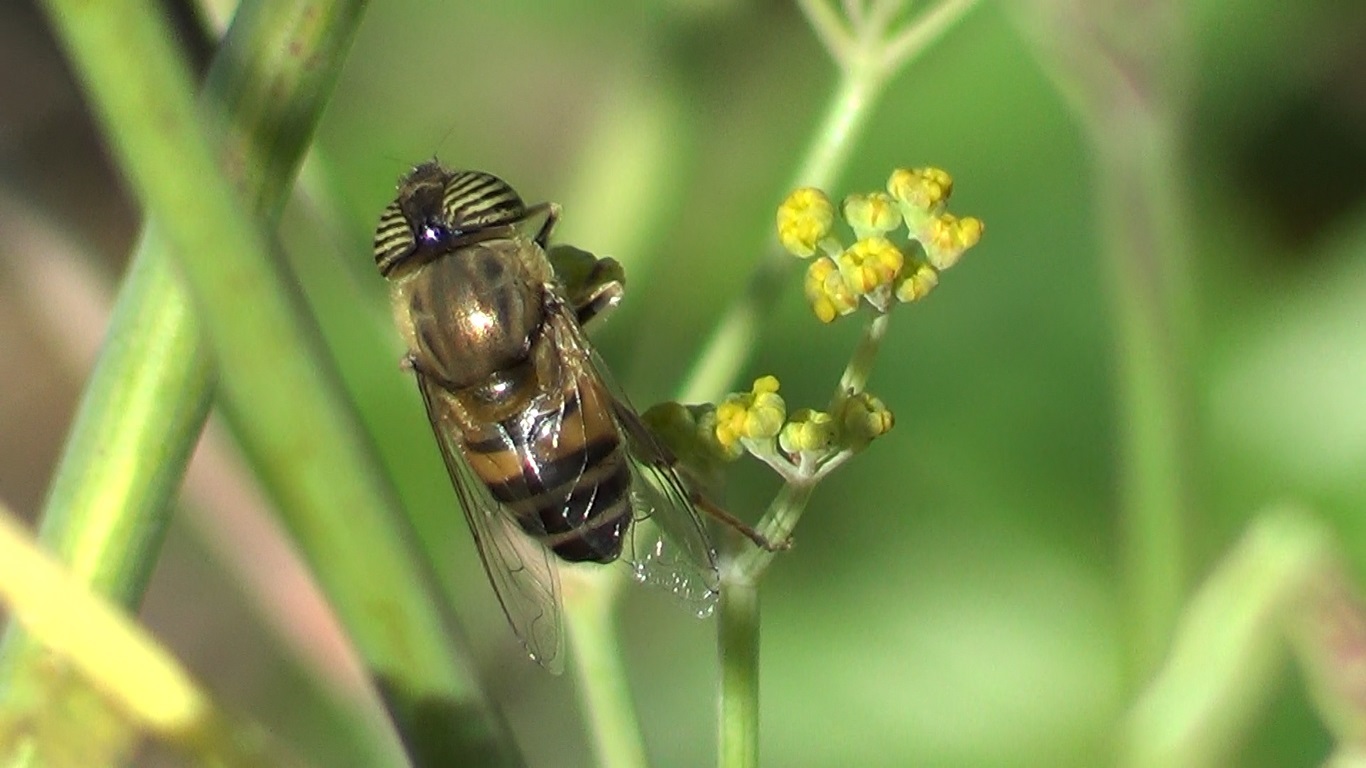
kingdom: Animalia
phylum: Arthropoda
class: Insecta
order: Diptera
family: Syrphidae
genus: Eristalinus
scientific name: Eristalinus taeniops
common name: Syrphid fly
